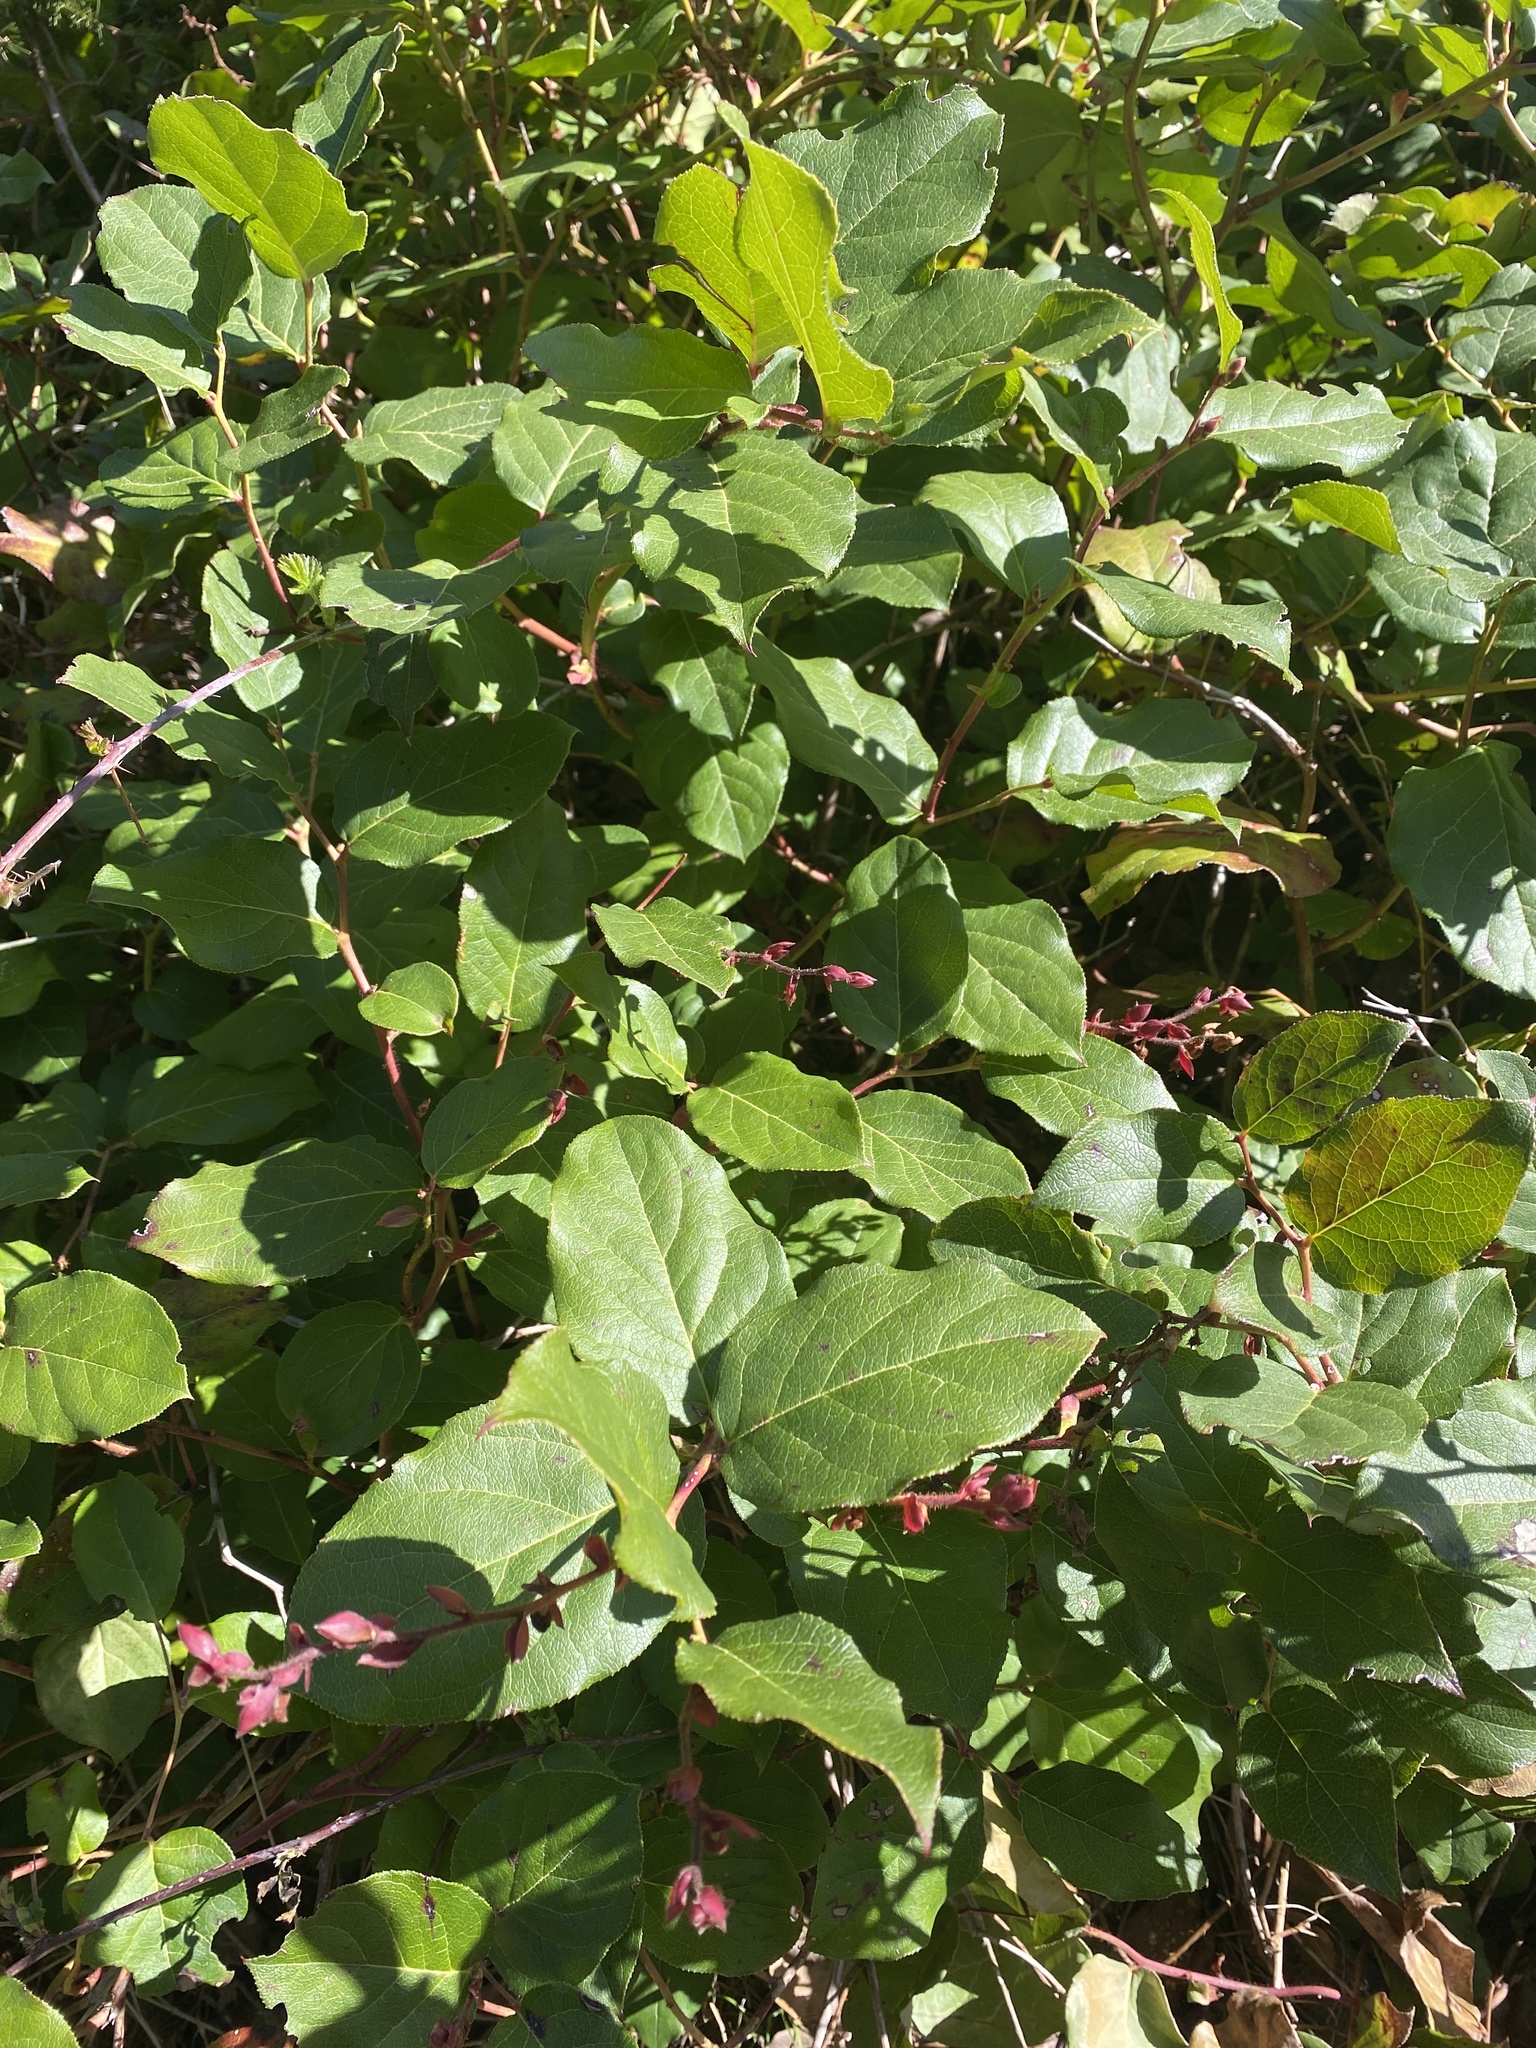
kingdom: Plantae
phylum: Tracheophyta
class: Magnoliopsida
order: Ericales
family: Ericaceae
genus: Gaultheria
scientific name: Gaultheria shallon
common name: Shallon
